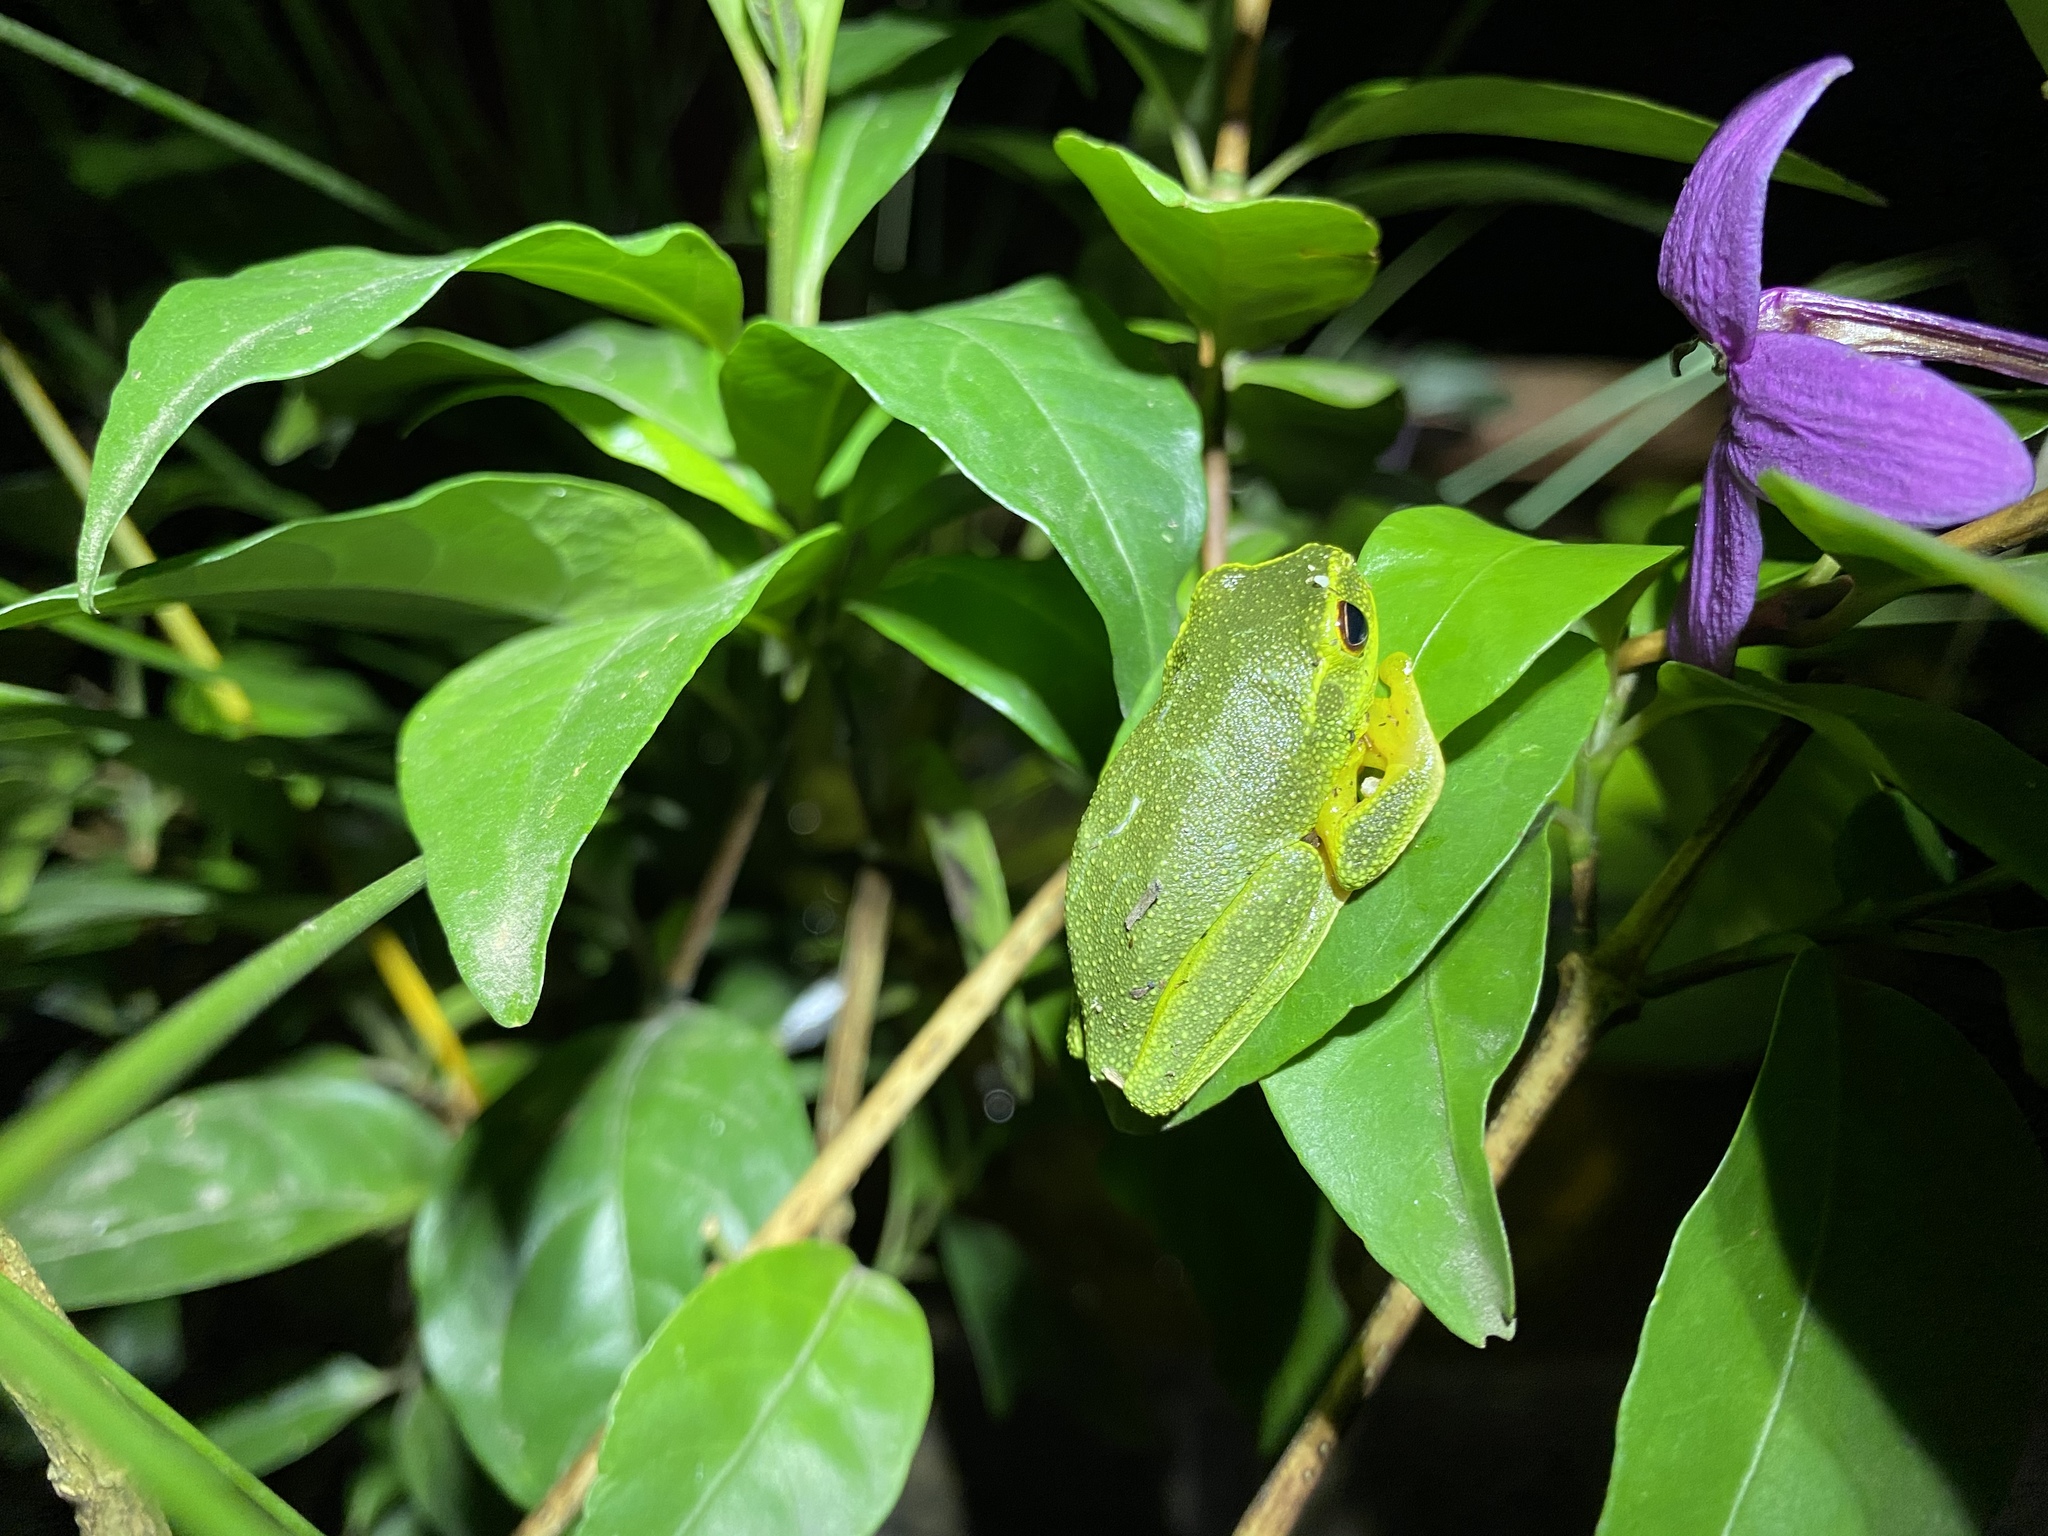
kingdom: Animalia
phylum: Chordata
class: Amphibia
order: Anura
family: Pelodryadidae
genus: Ranoidea
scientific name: Ranoidea gracilenta
